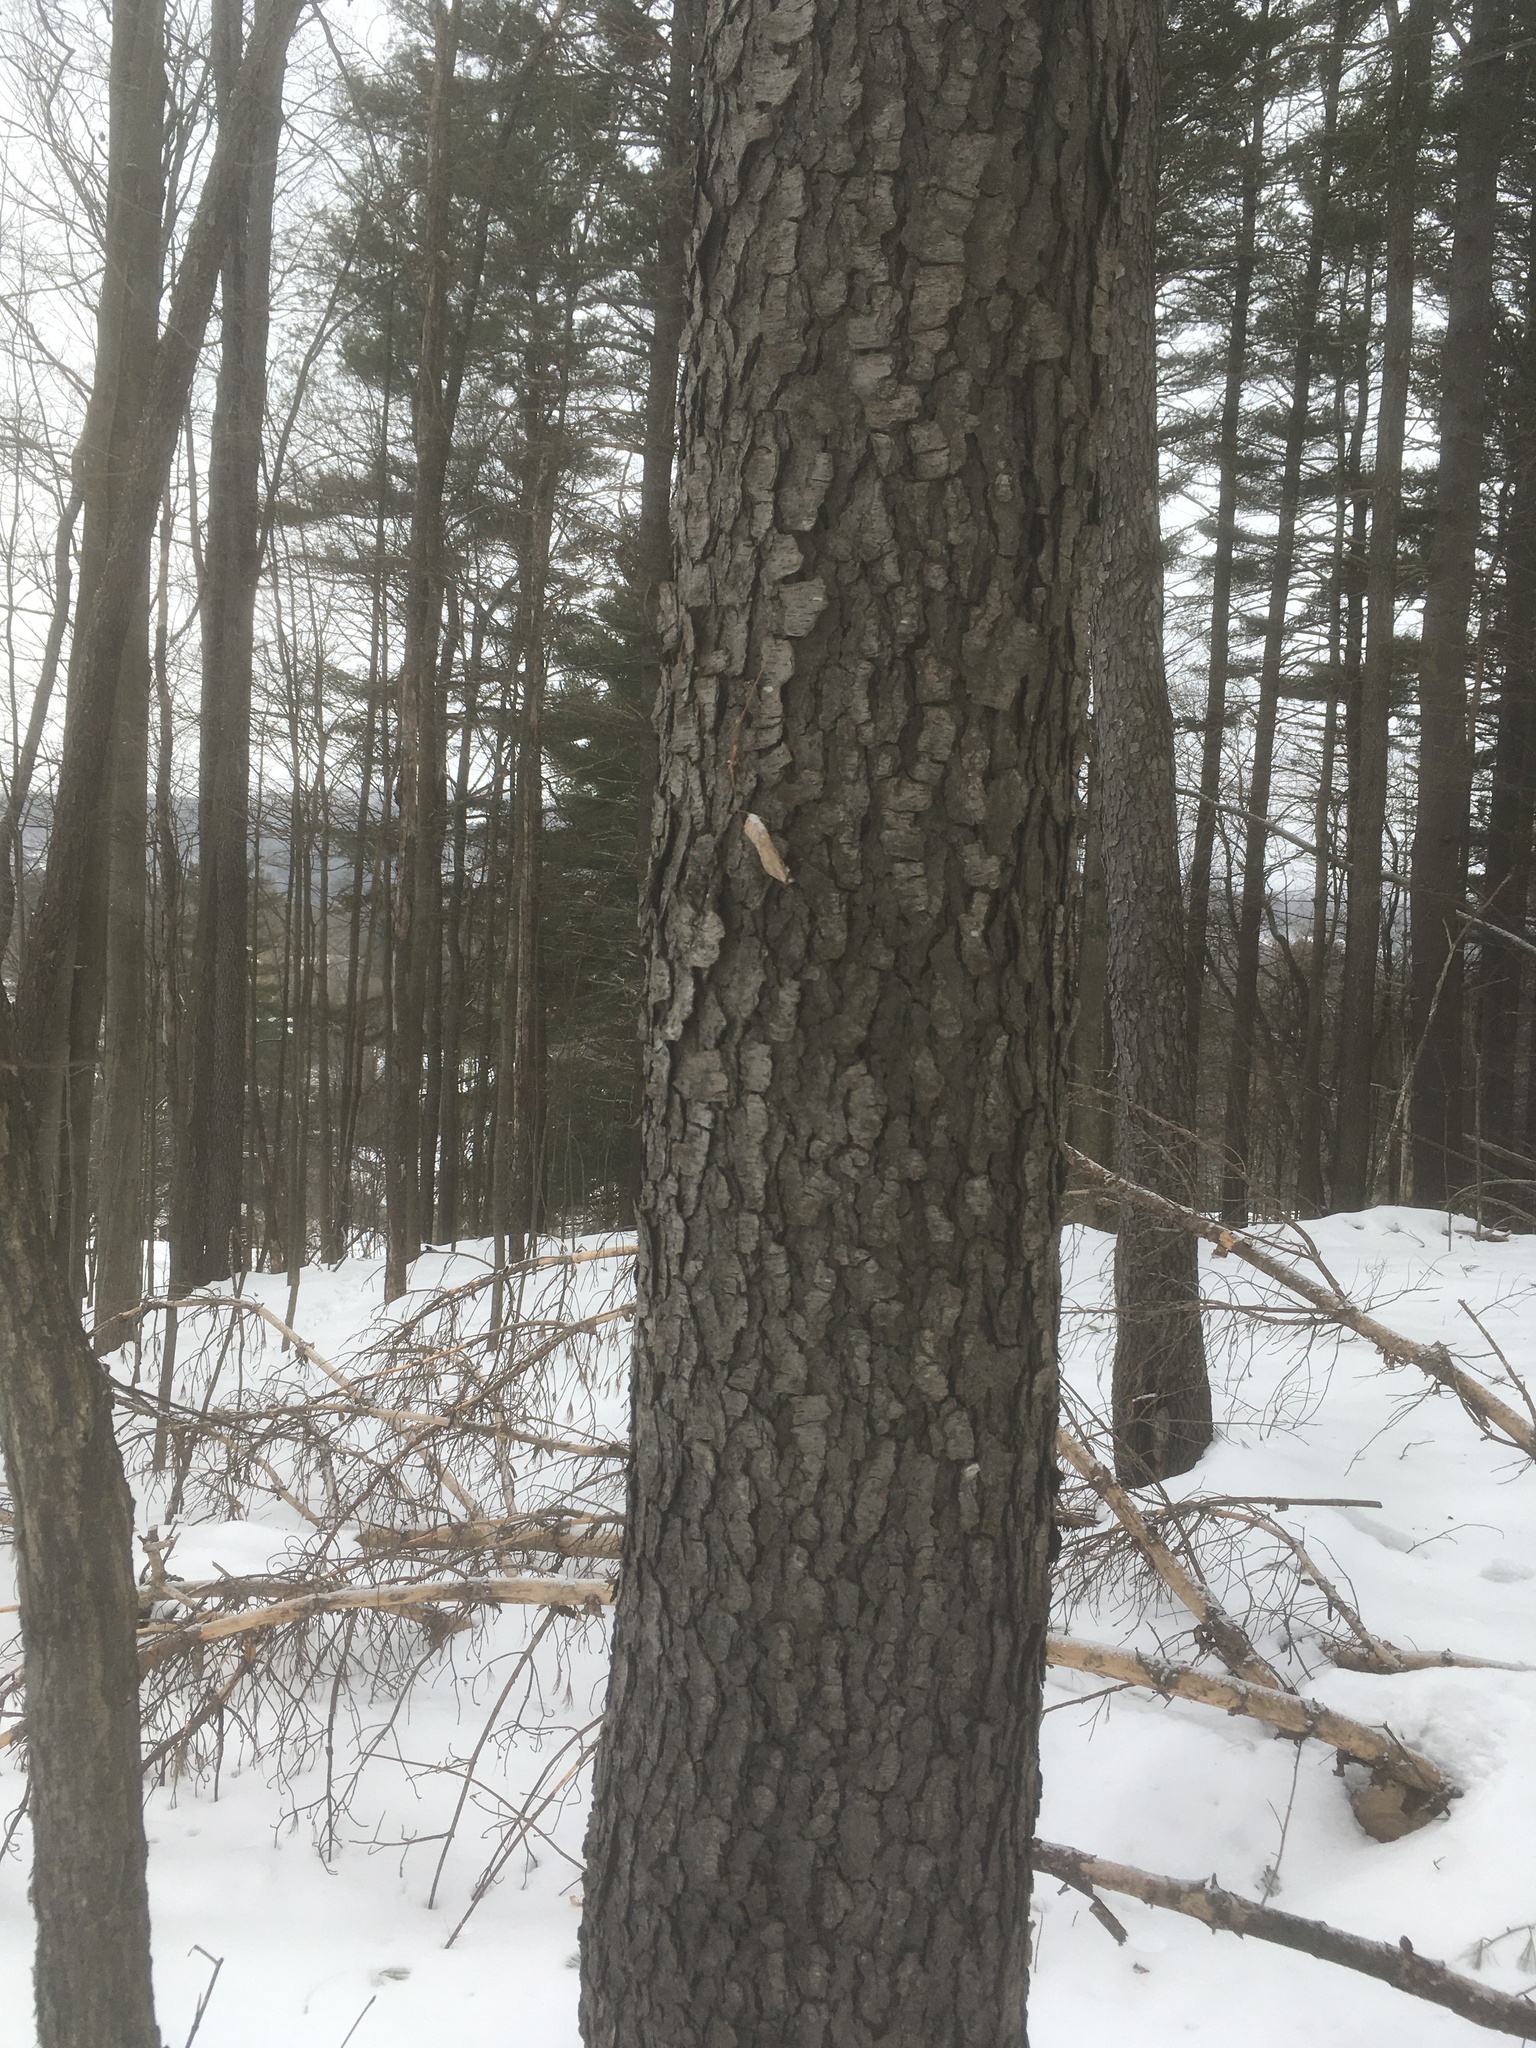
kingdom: Plantae
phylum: Tracheophyta
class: Magnoliopsida
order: Rosales
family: Rosaceae
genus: Prunus
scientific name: Prunus serotina
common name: Black cherry
